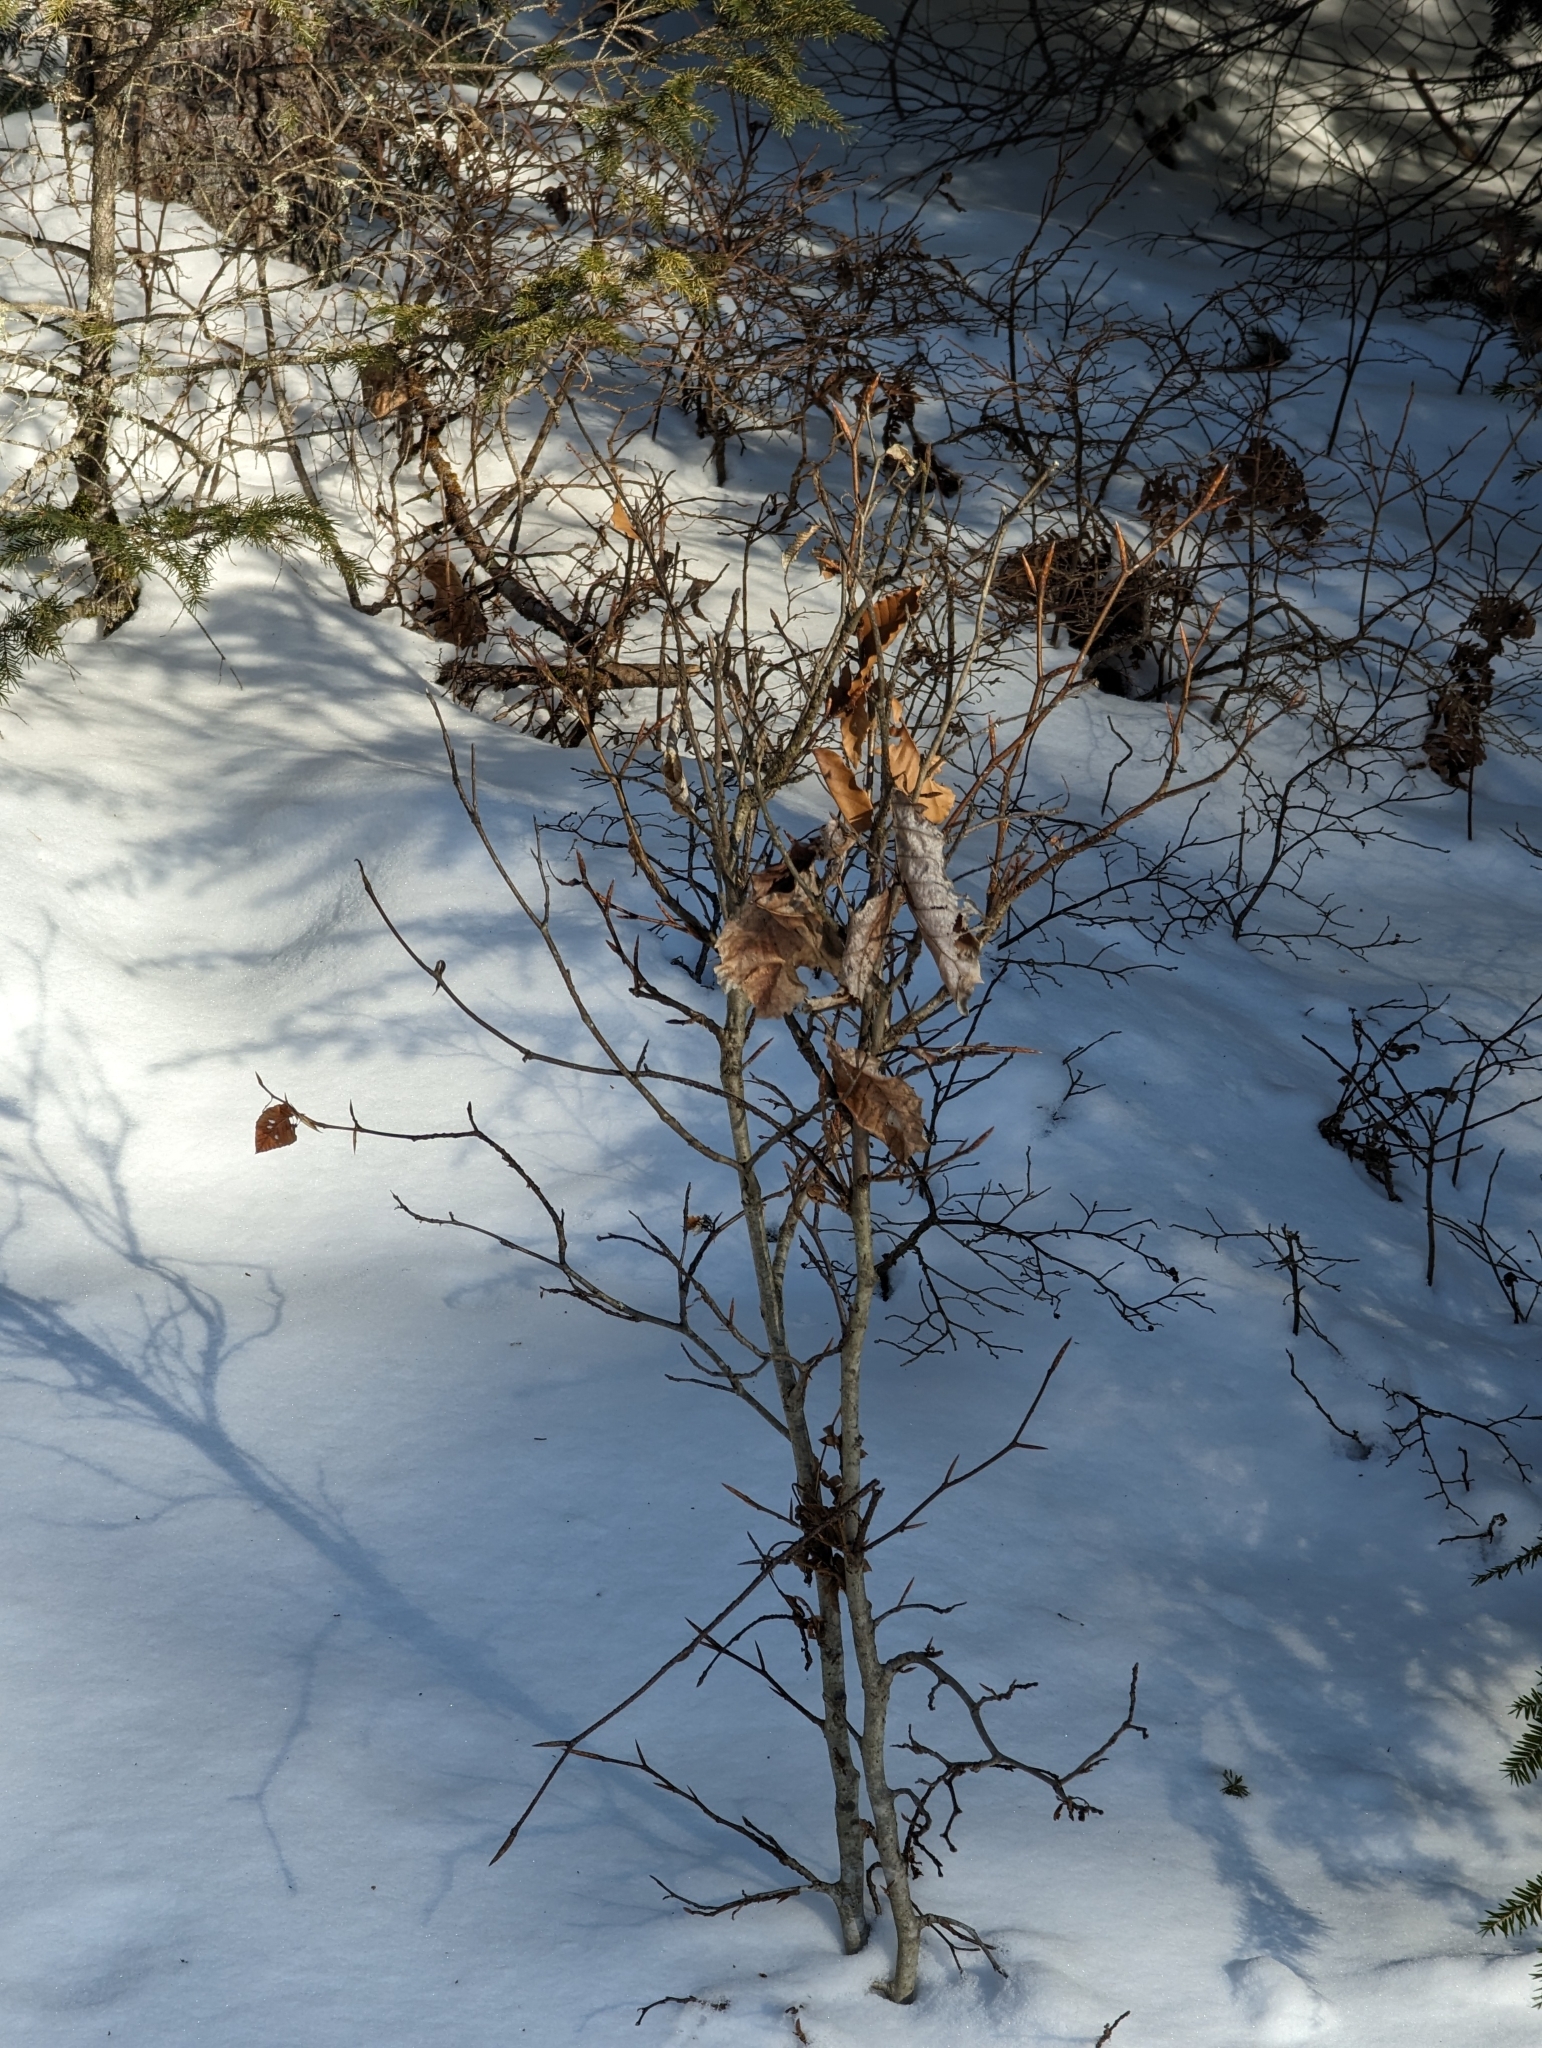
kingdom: Plantae
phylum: Tracheophyta
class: Magnoliopsida
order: Fagales
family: Fagaceae
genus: Fagus
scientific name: Fagus grandifolia
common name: American beech
